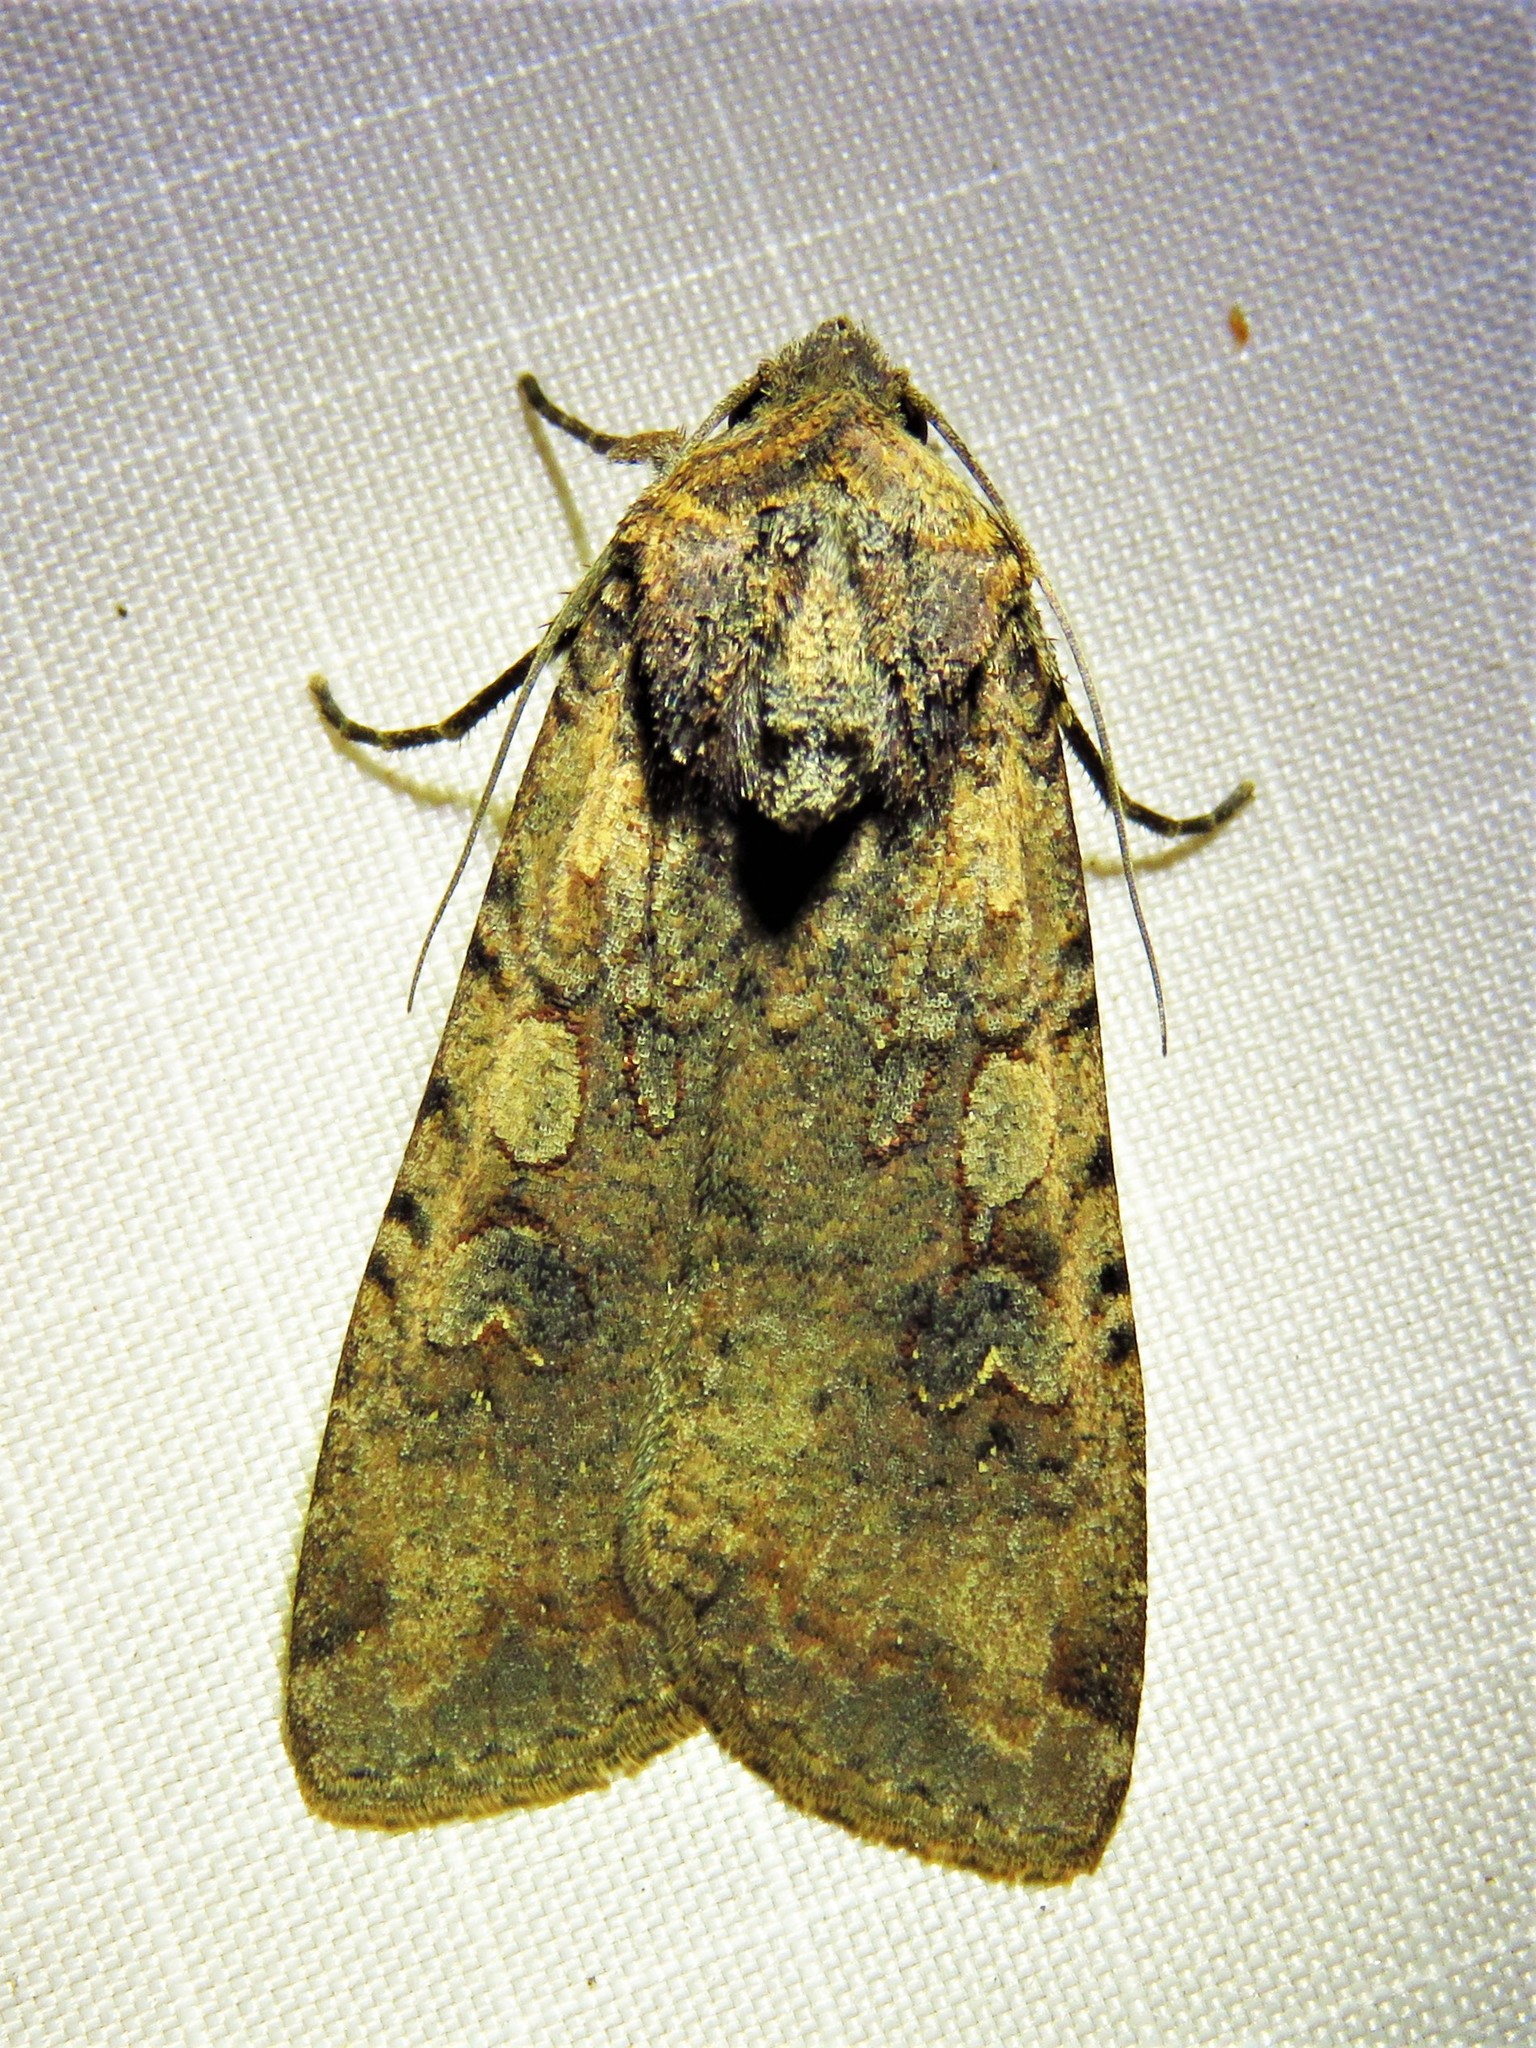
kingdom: Animalia
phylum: Arthropoda
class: Insecta
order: Lepidoptera
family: Noctuidae
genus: Peridroma
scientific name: Peridroma saucia
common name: Pearly underwing
